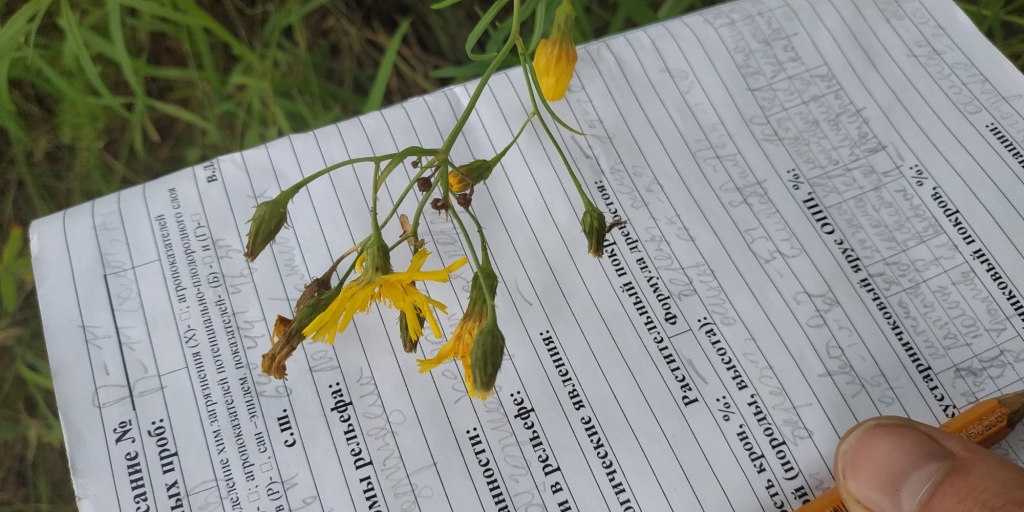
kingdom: Plantae
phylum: Tracheophyta
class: Magnoliopsida
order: Asterales
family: Asteraceae
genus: Hieracium
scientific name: Hieracium umbellatum
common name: Northern hawkweed
